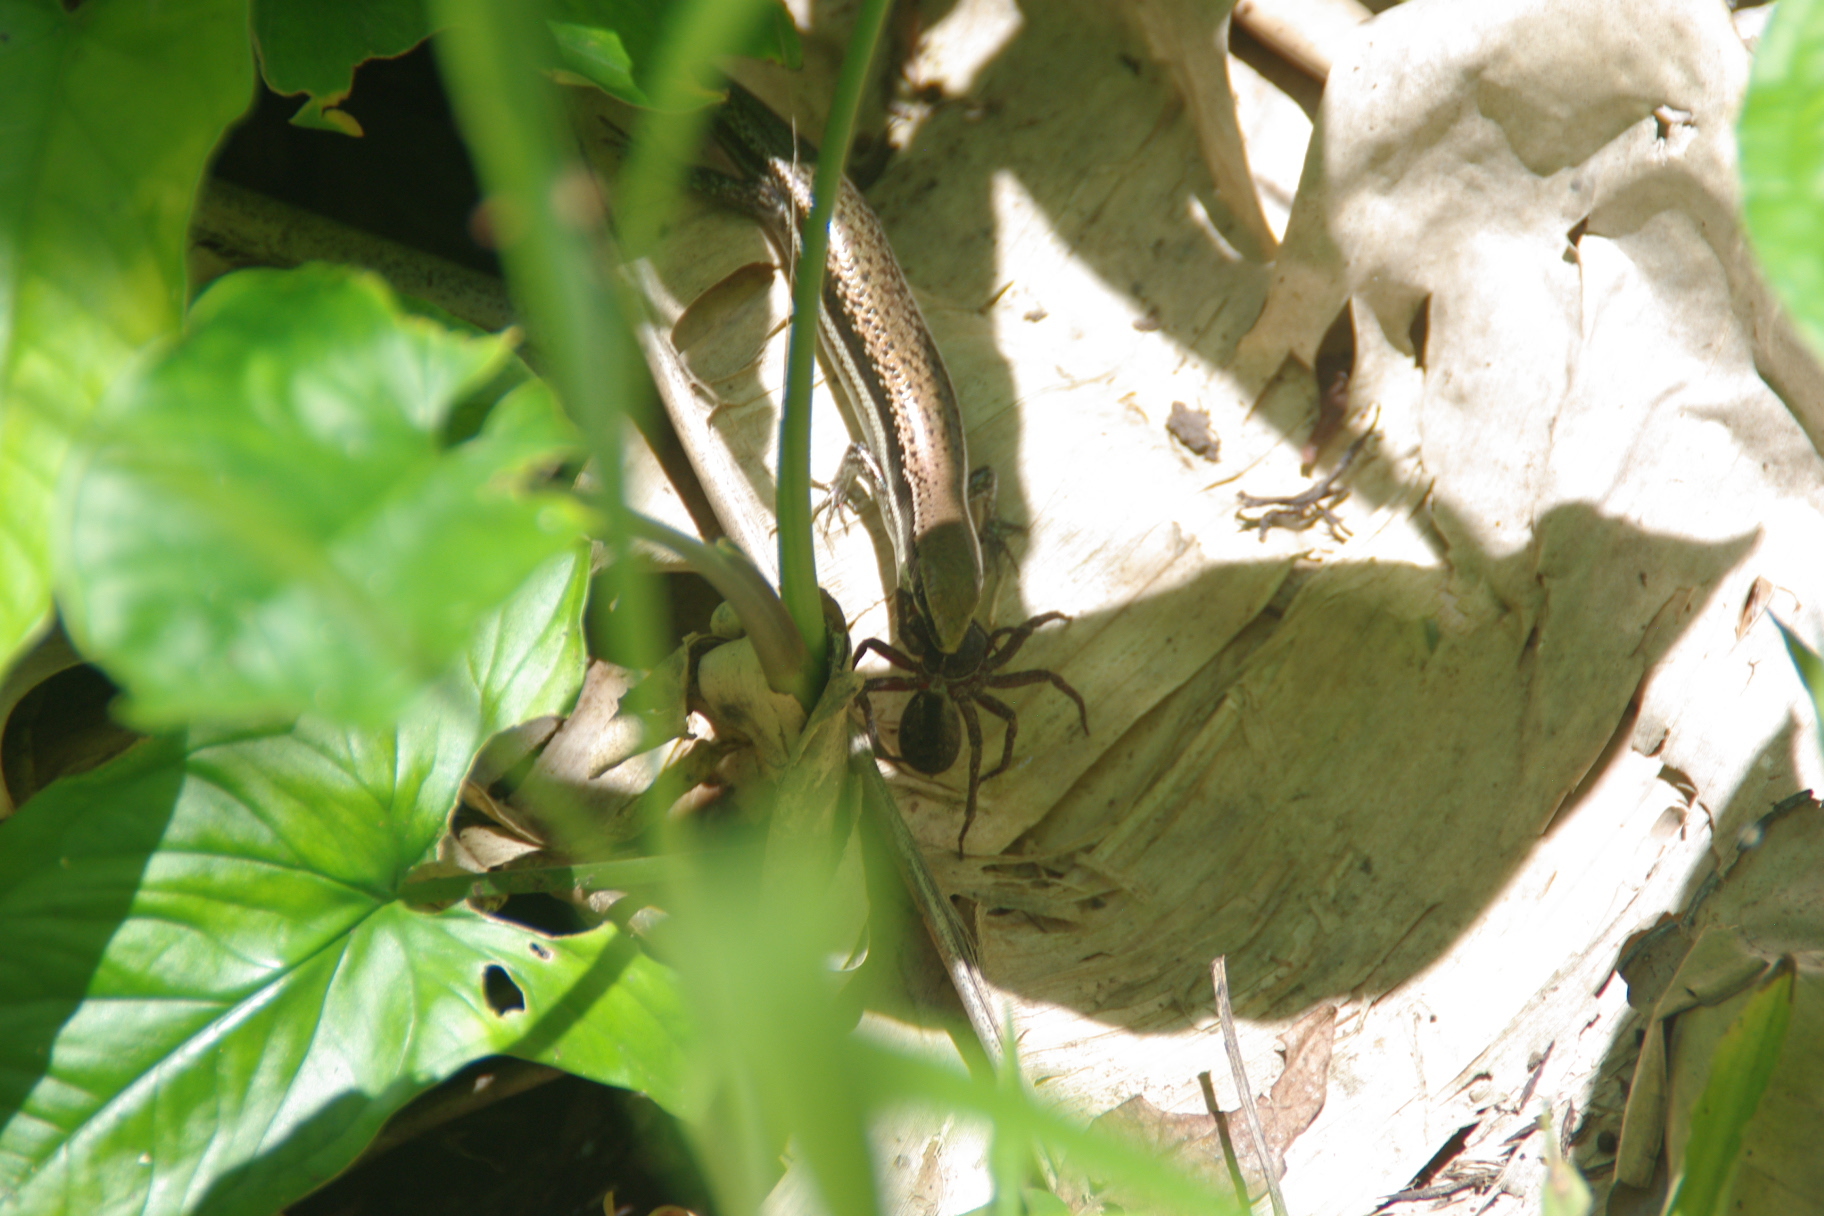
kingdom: Animalia
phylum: Chordata
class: Squamata
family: Scincidae
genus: Marisora
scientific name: Marisora unimarginata
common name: Central american mabuya
